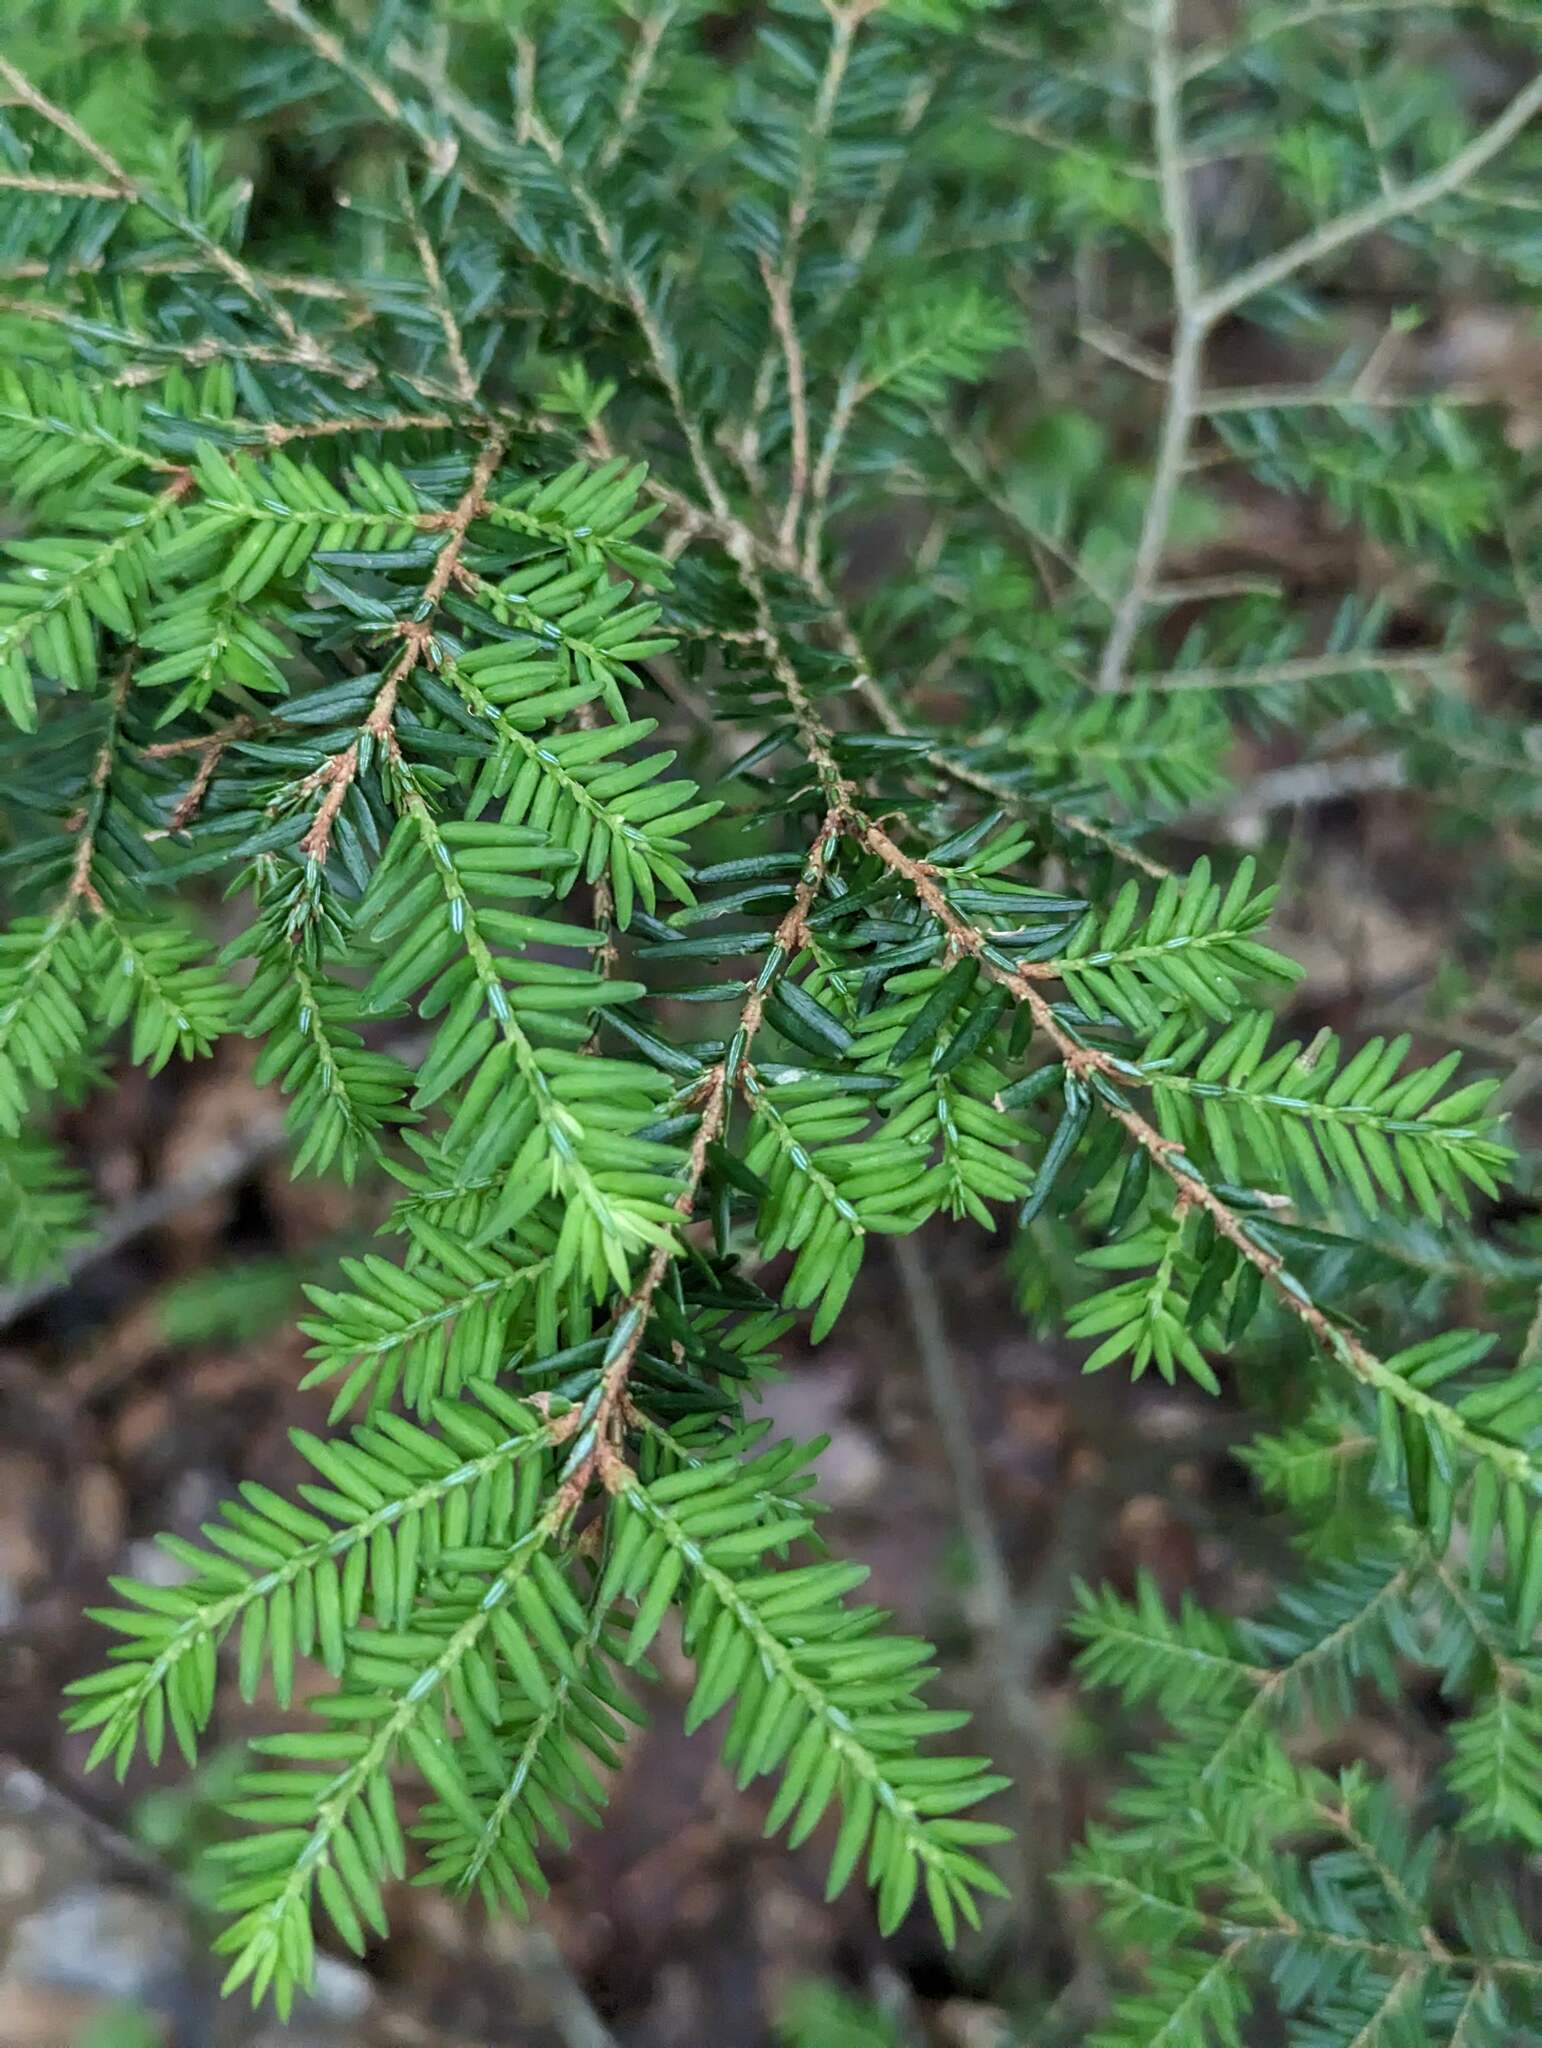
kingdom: Plantae
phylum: Tracheophyta
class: Pinopsida
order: Pinales
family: Pinaceae
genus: Tsuga
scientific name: Tsuga canadensis
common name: Eastern hemlock
